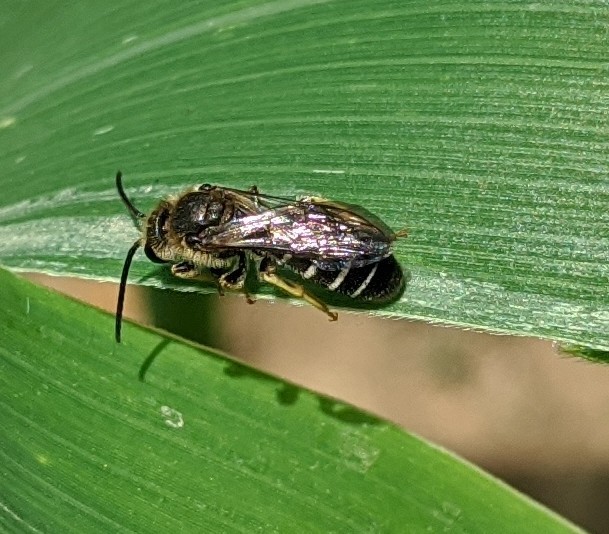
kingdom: Animalia
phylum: Arthropoda
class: Insecta
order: Hymenoptera
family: Halictidae
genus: Halictus
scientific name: Halictus rubicundus
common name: Orange-legged furrow bee
